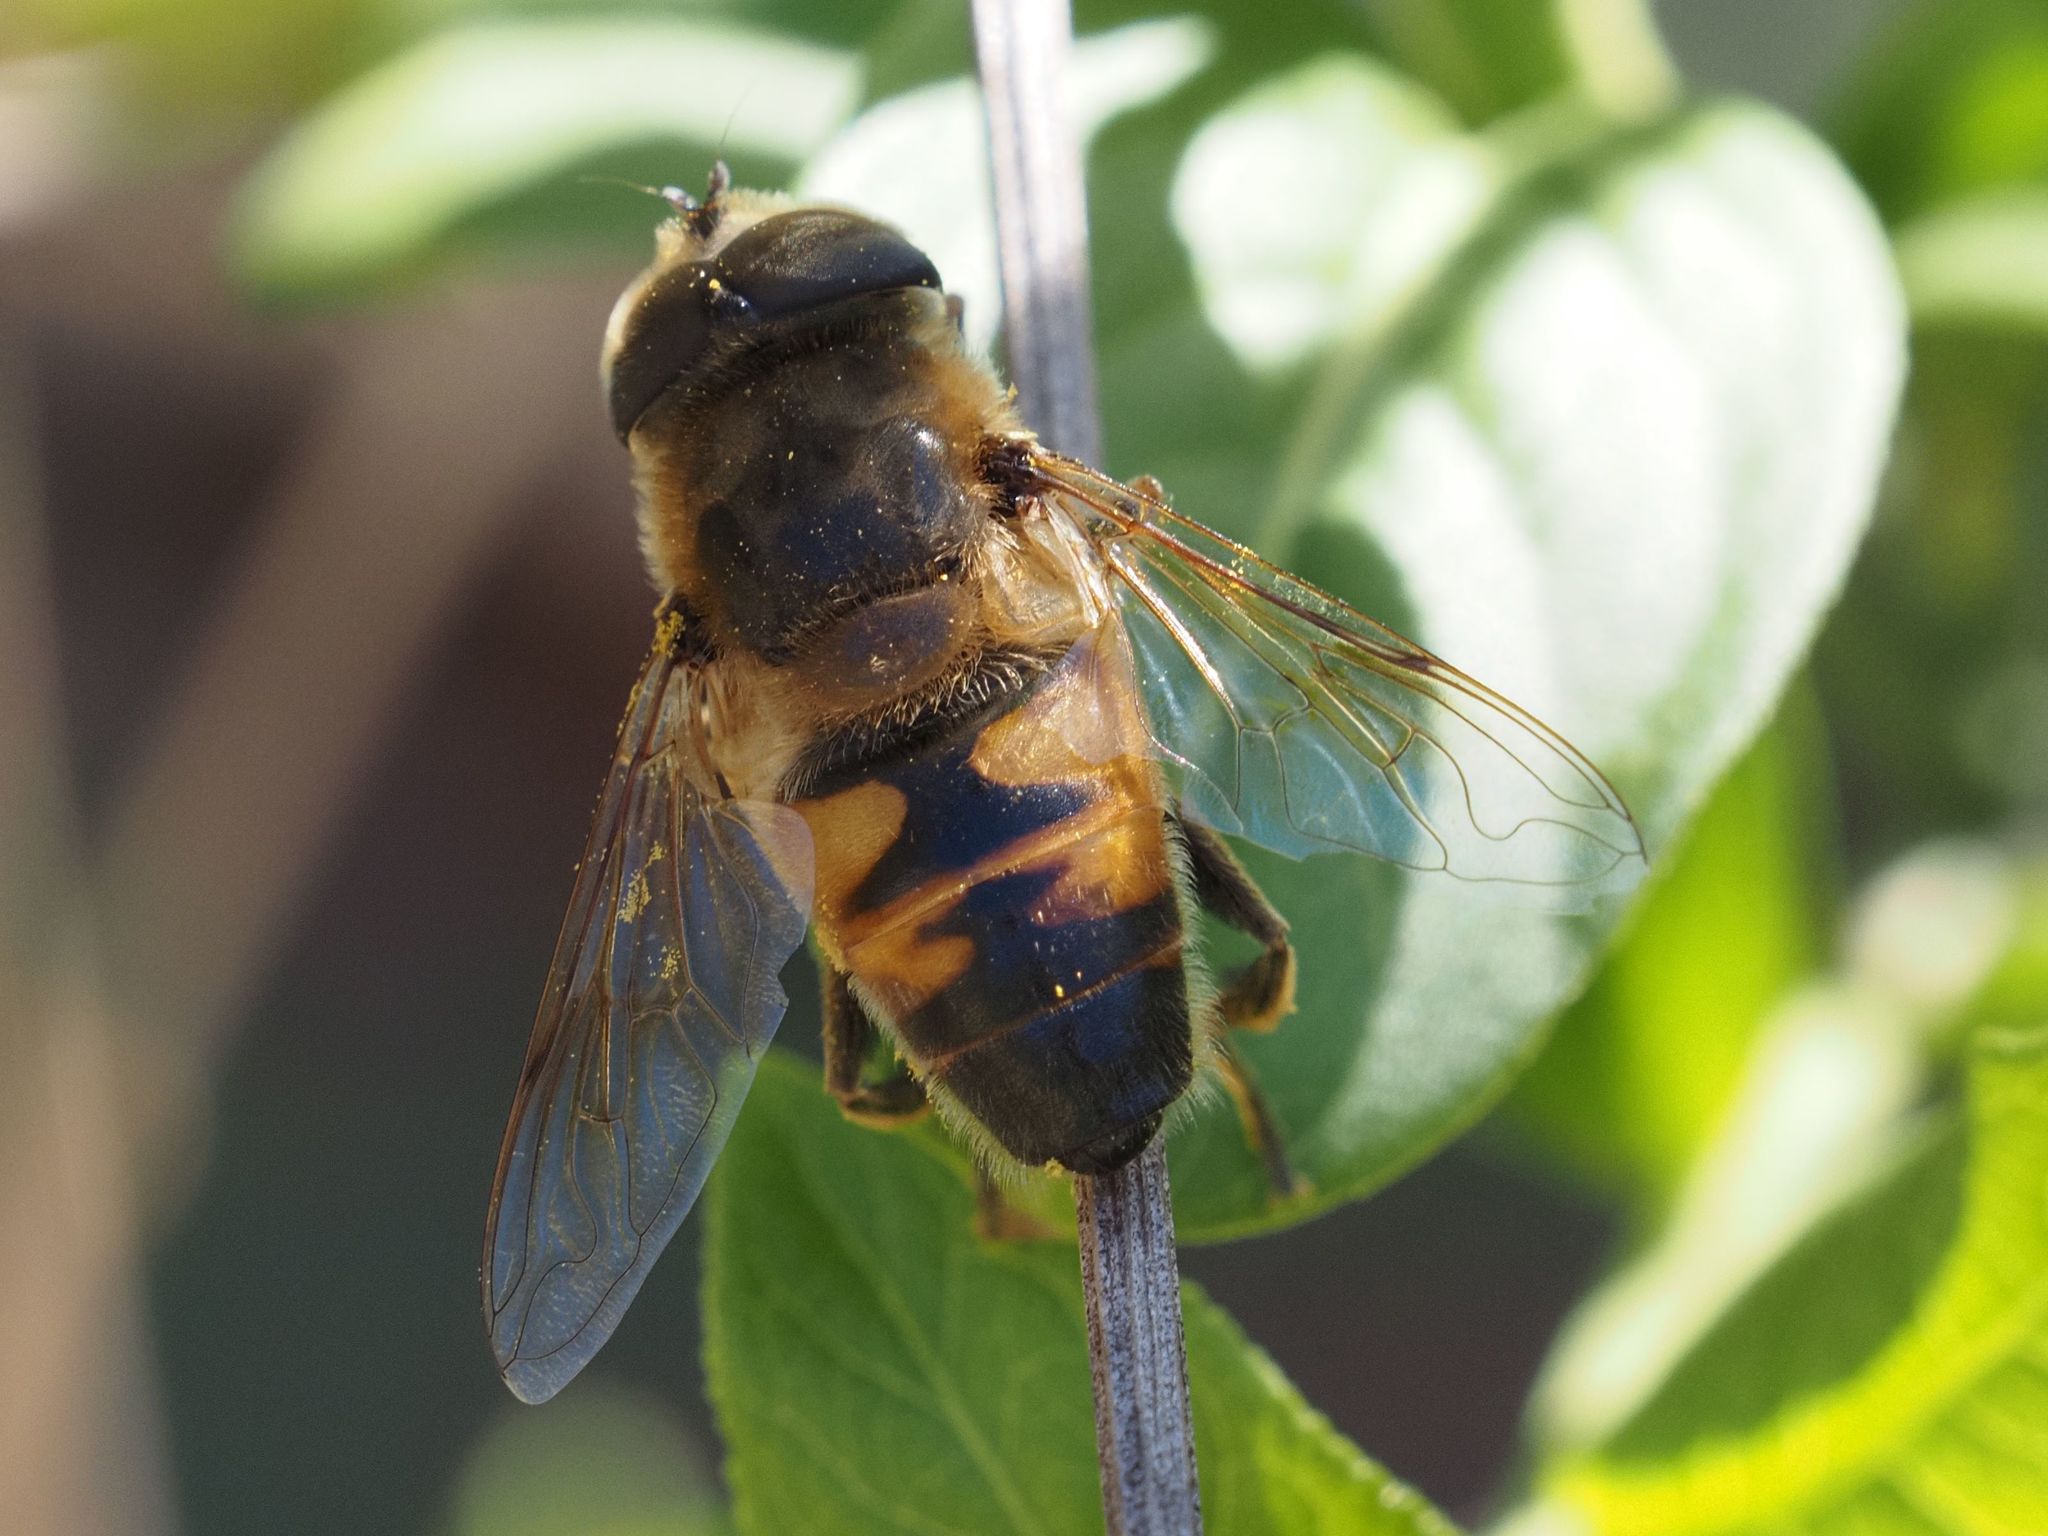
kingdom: Animalia
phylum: Arthropoda
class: Insecta
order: Diptera
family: Syrphidae
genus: Eristalis
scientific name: Eristalis tenax
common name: Drone fly
